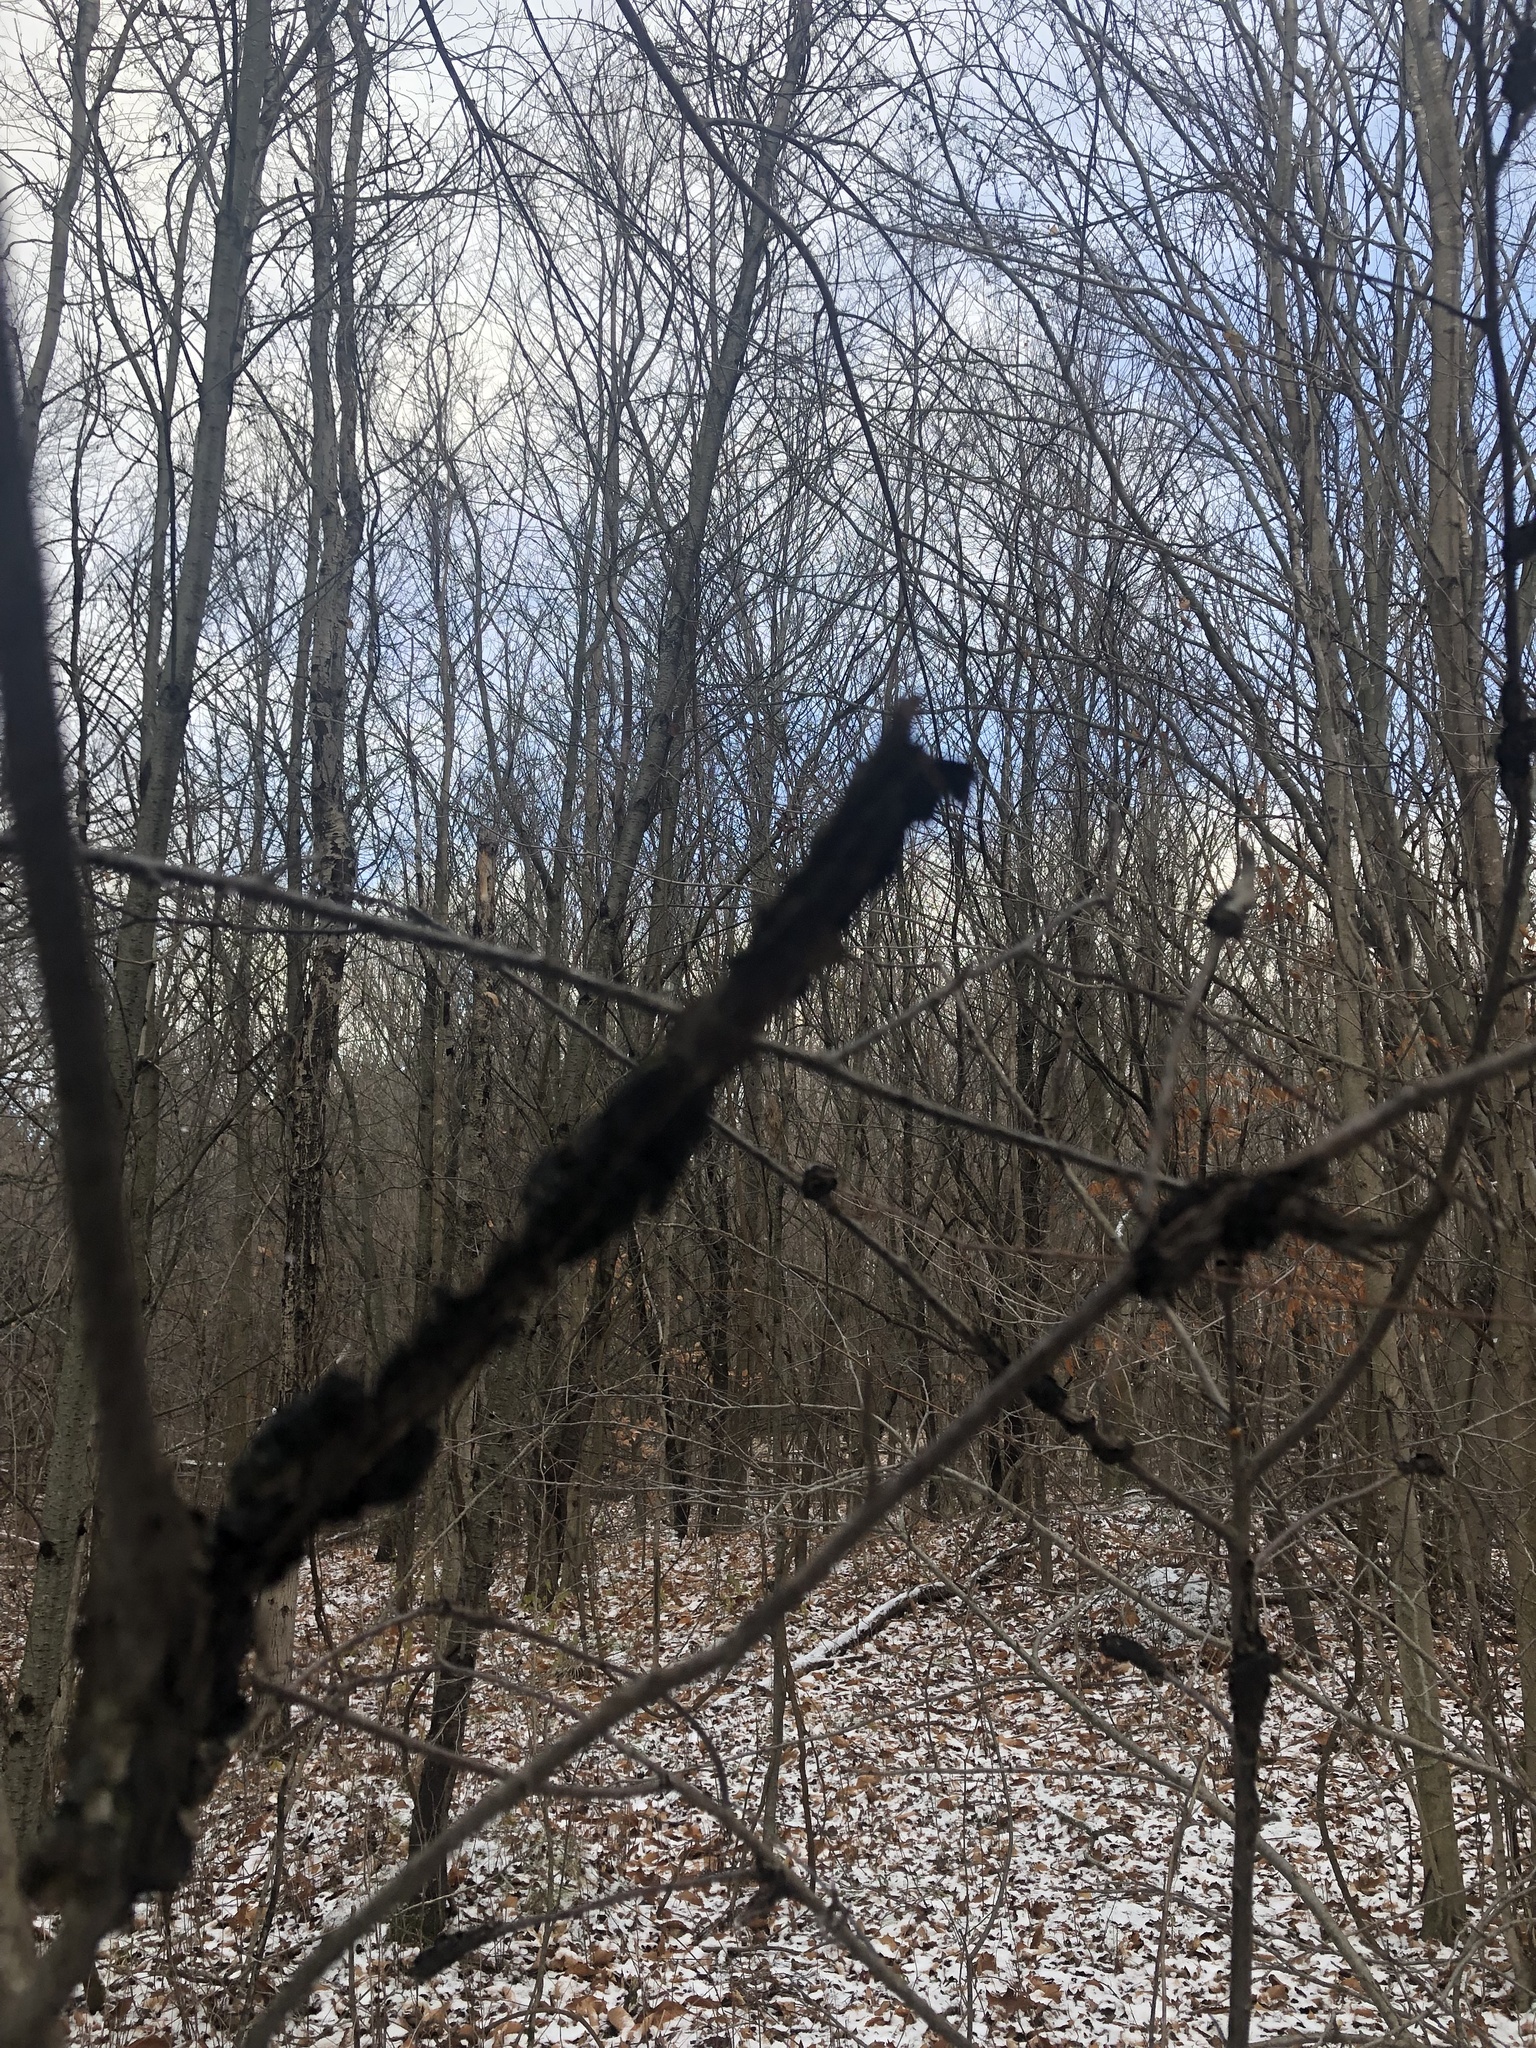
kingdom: Fungi
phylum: Ascomycota
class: Dothideomycetes
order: Venturiales
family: Venturiaceae
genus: Apiosporina
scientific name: Apiosporina morbosa
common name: Black knot
